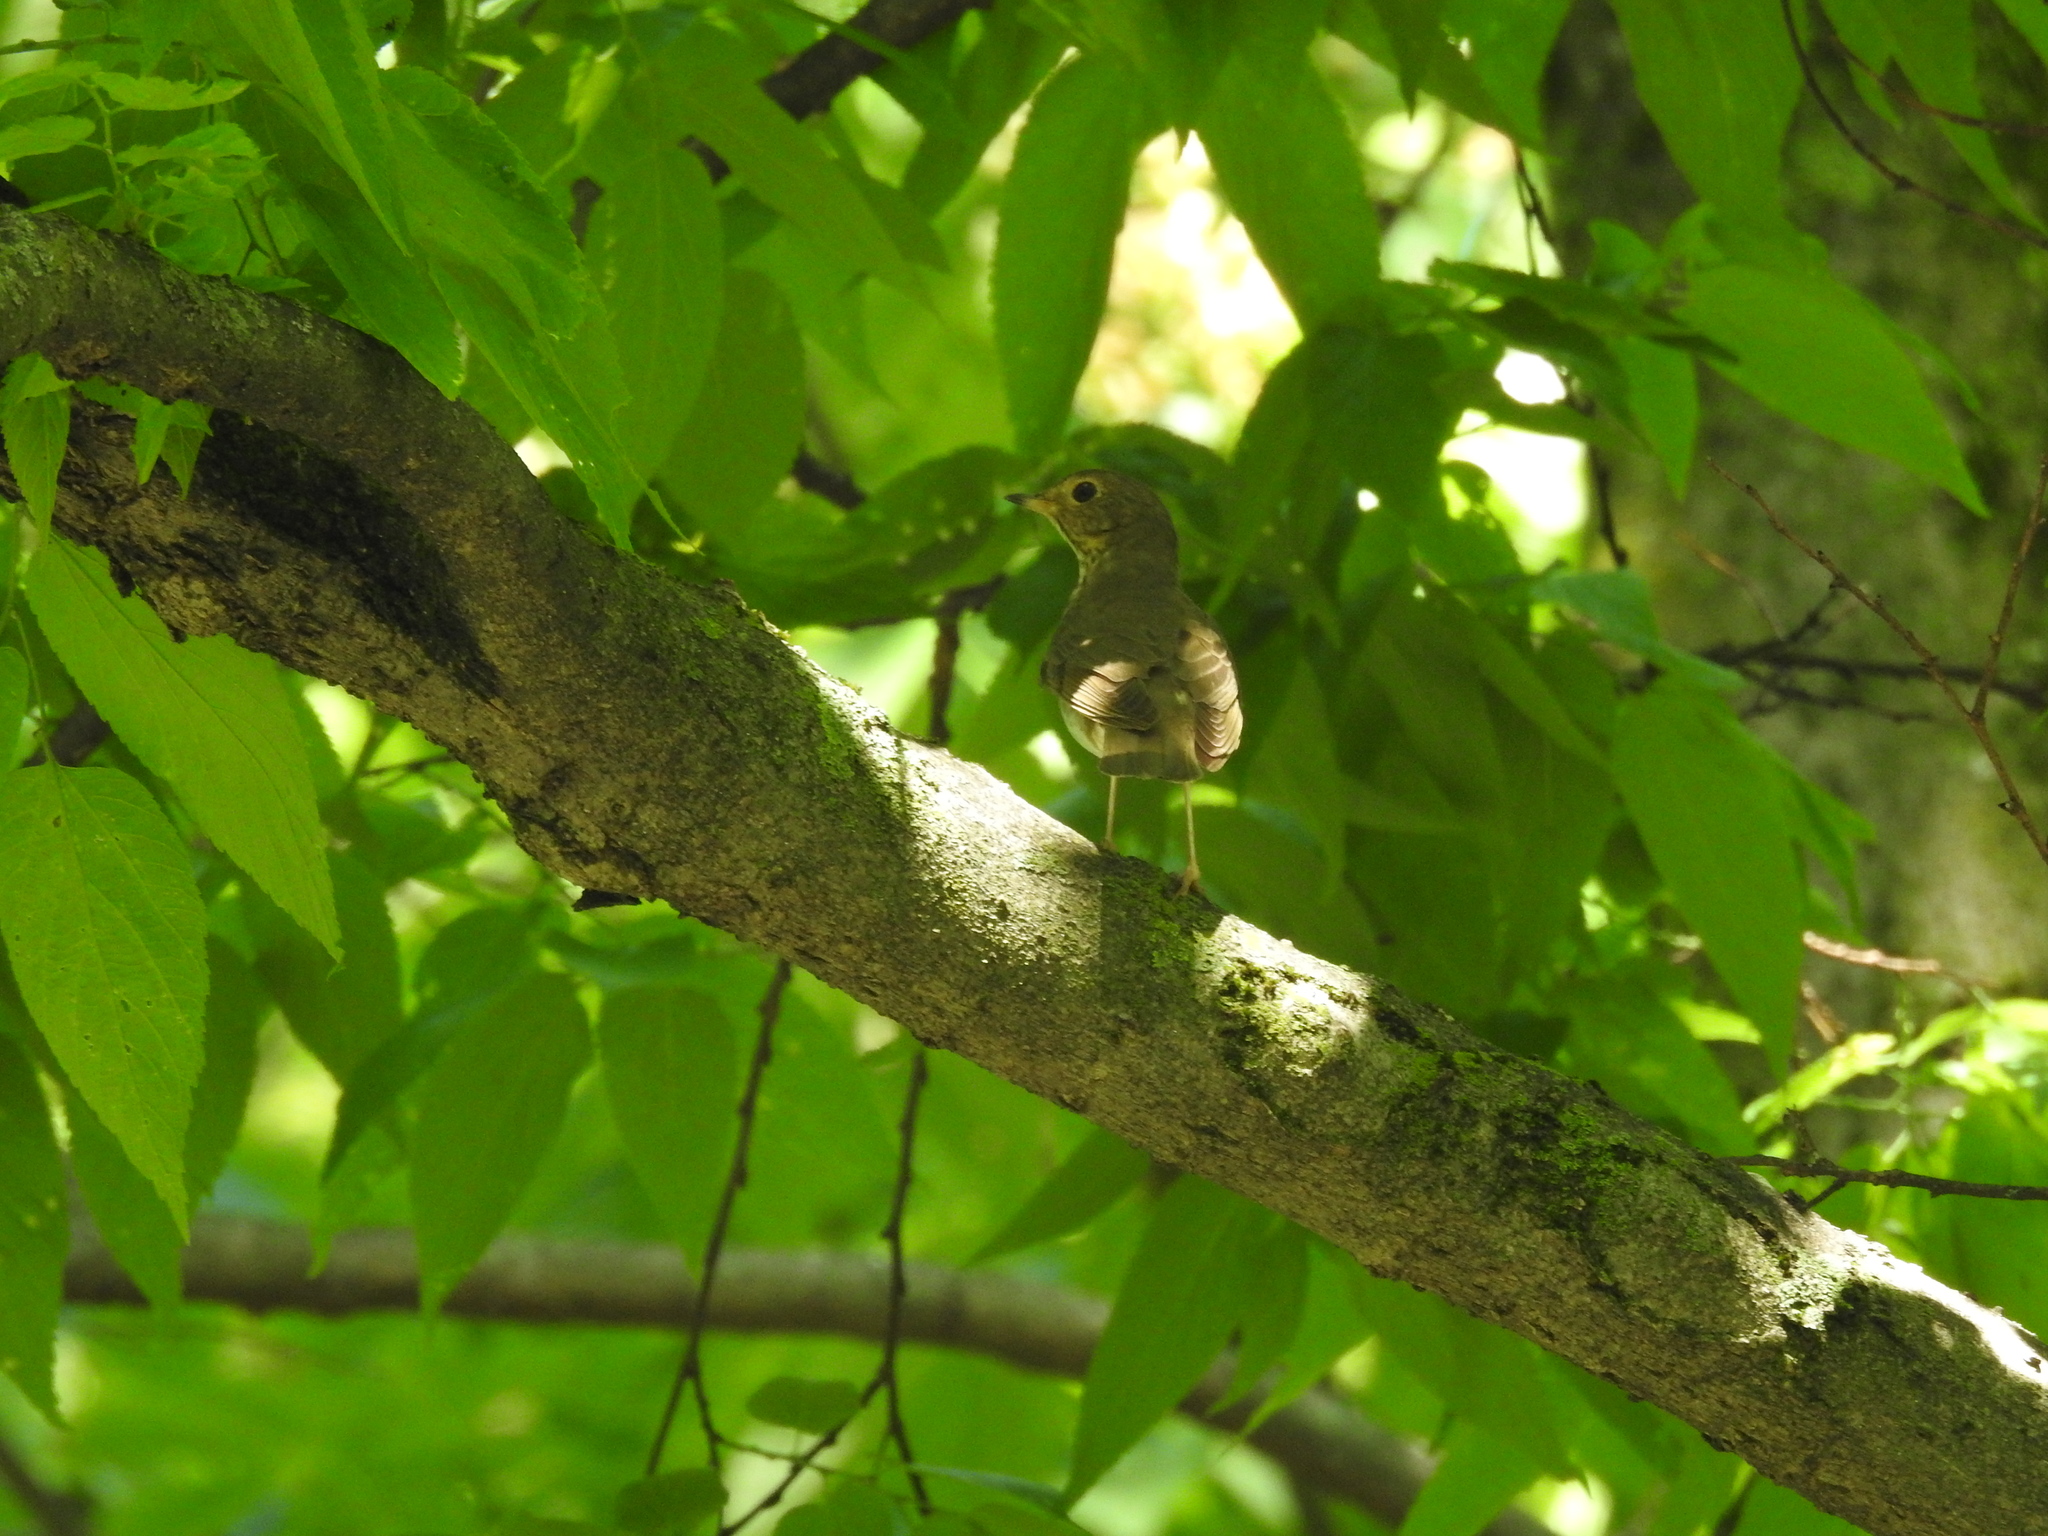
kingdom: Animalia
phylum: Chordata
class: Aves
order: Passeriformes
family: Turdidae
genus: Catharus
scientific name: Catharus ustulatus
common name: Swainson's thrush
